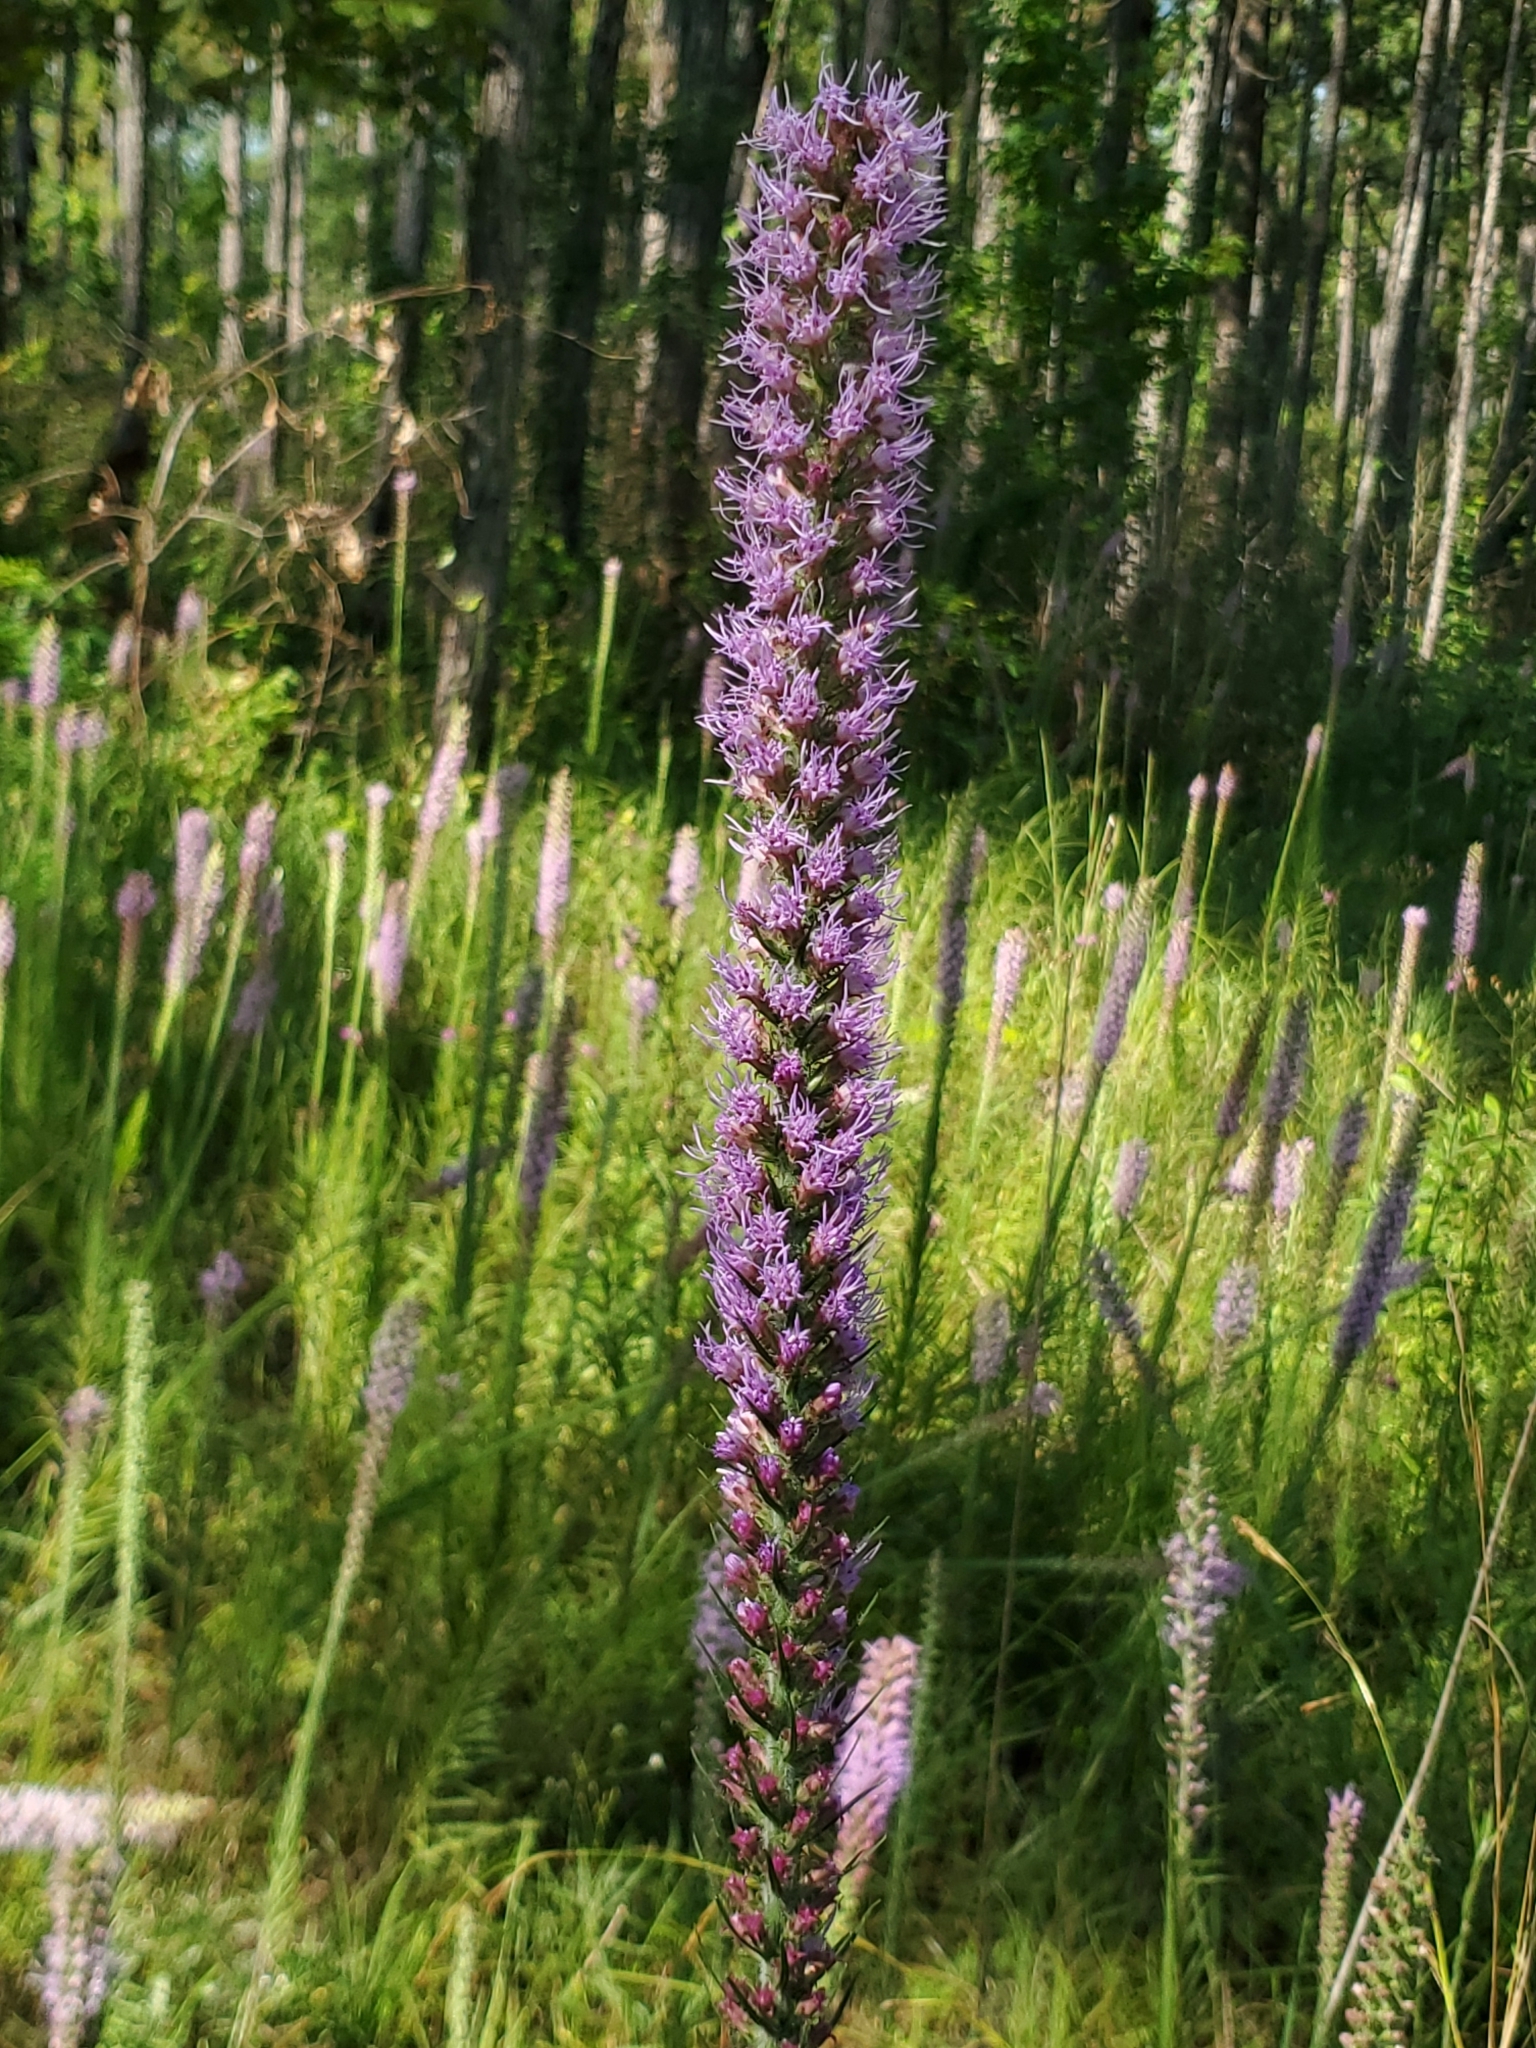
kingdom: Plantae
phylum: Tracheophyta
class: Magnoliopsida
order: Asterales
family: Asteraceae
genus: Liatris
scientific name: Liatris pycnostachya
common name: Cattail gayfeather
